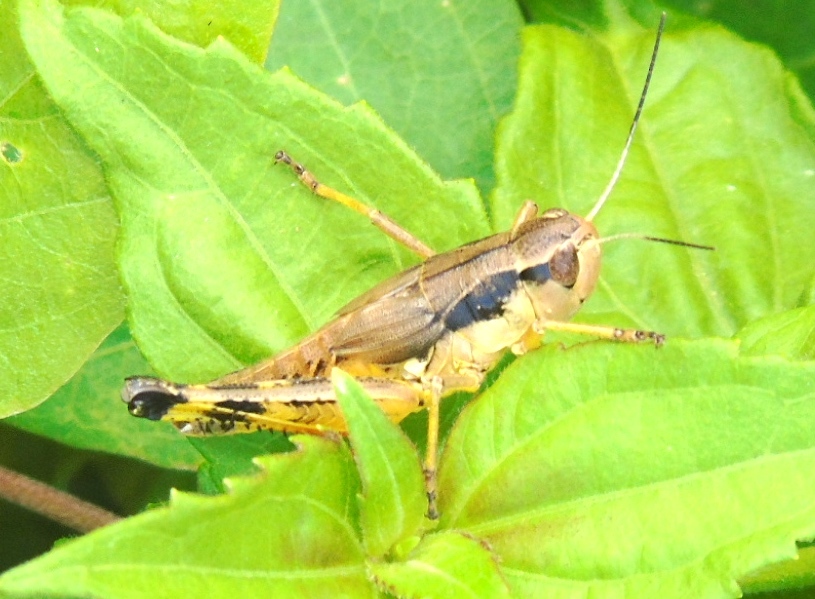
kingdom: Animalia
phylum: Arthropoda
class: Insecta
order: Orthoptera
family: Acrididae
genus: Boopedon
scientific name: Boopedon flaviventris
